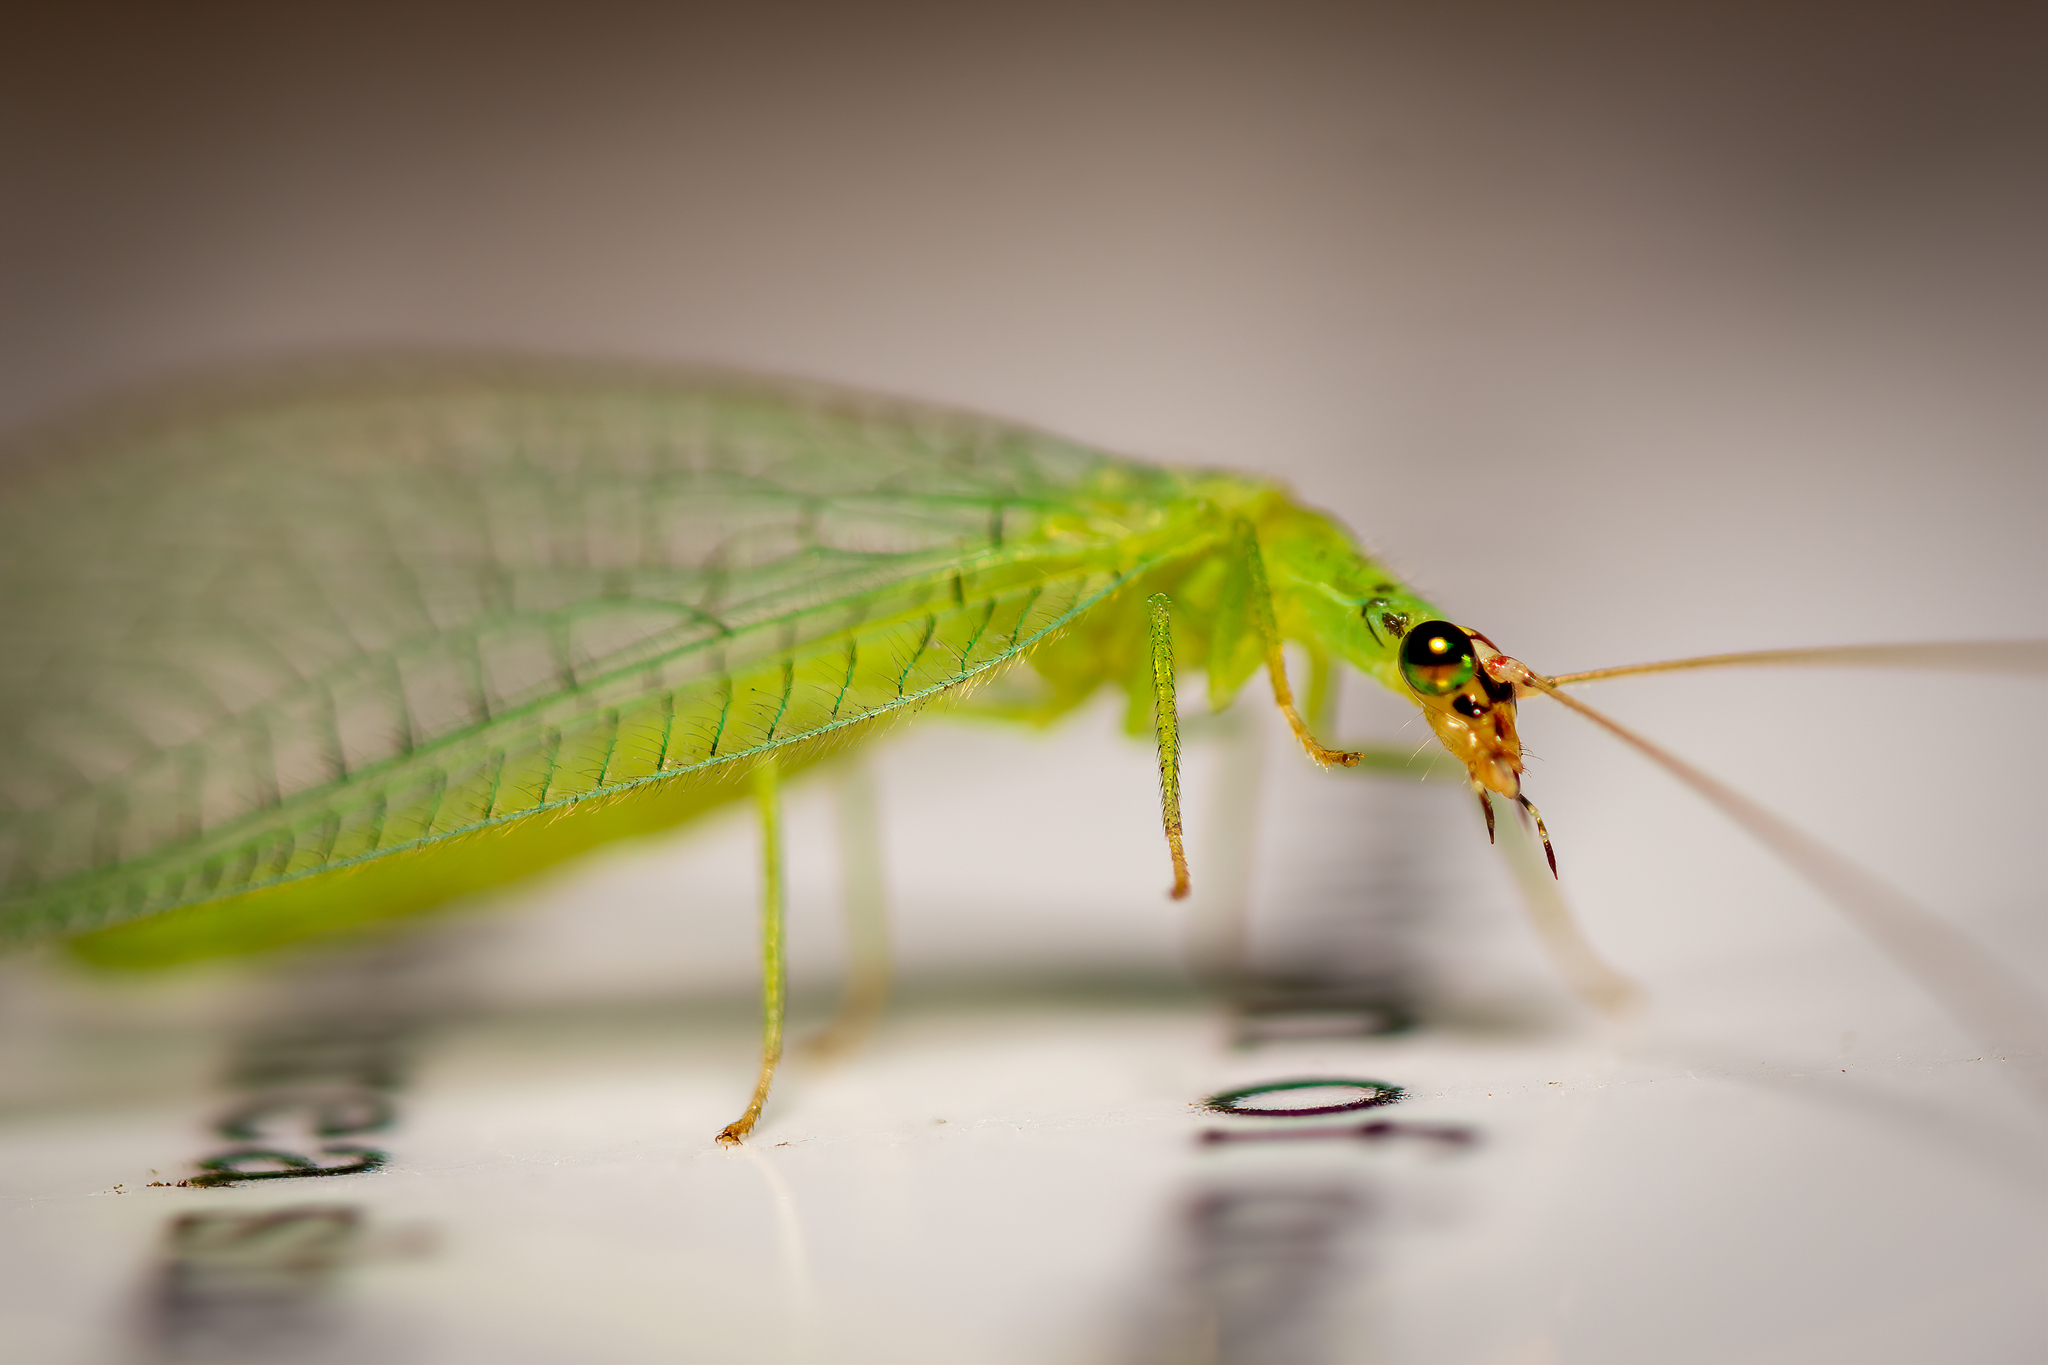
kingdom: Animalia
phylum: Arthropoda
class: Insecta
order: Neuroptera
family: Chrysopidae
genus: Chrysopa
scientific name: Chrysopa oculata
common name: Golden-eyed lacewing
